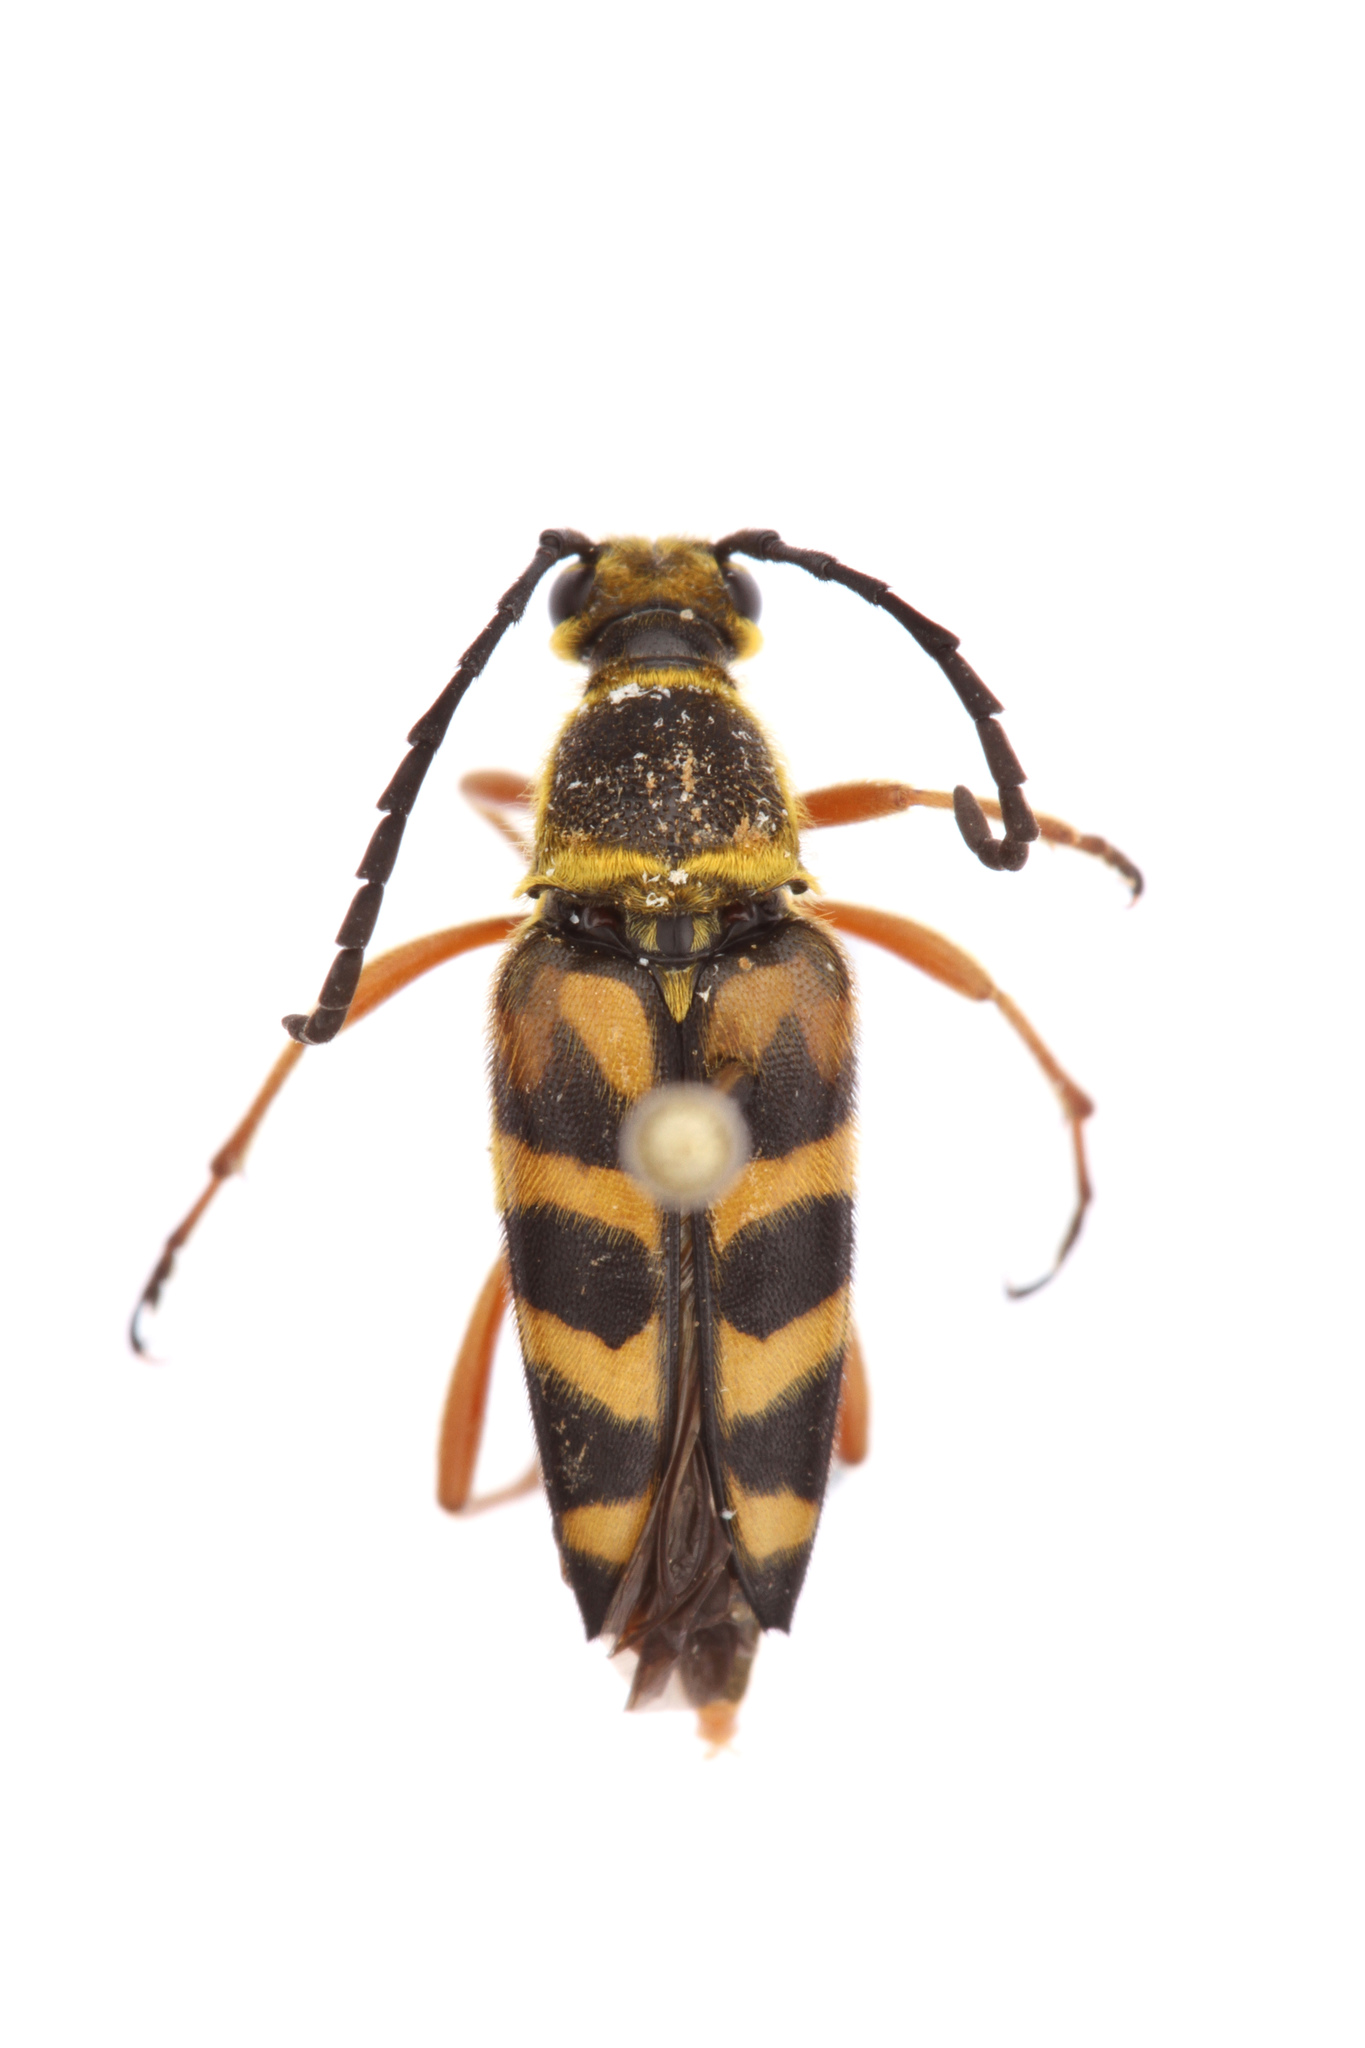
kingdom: Animalia
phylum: Arthropoda
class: Insecta
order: Coleoptera
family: Cerambycidae
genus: Typocerus
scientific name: Typocerus zebra
